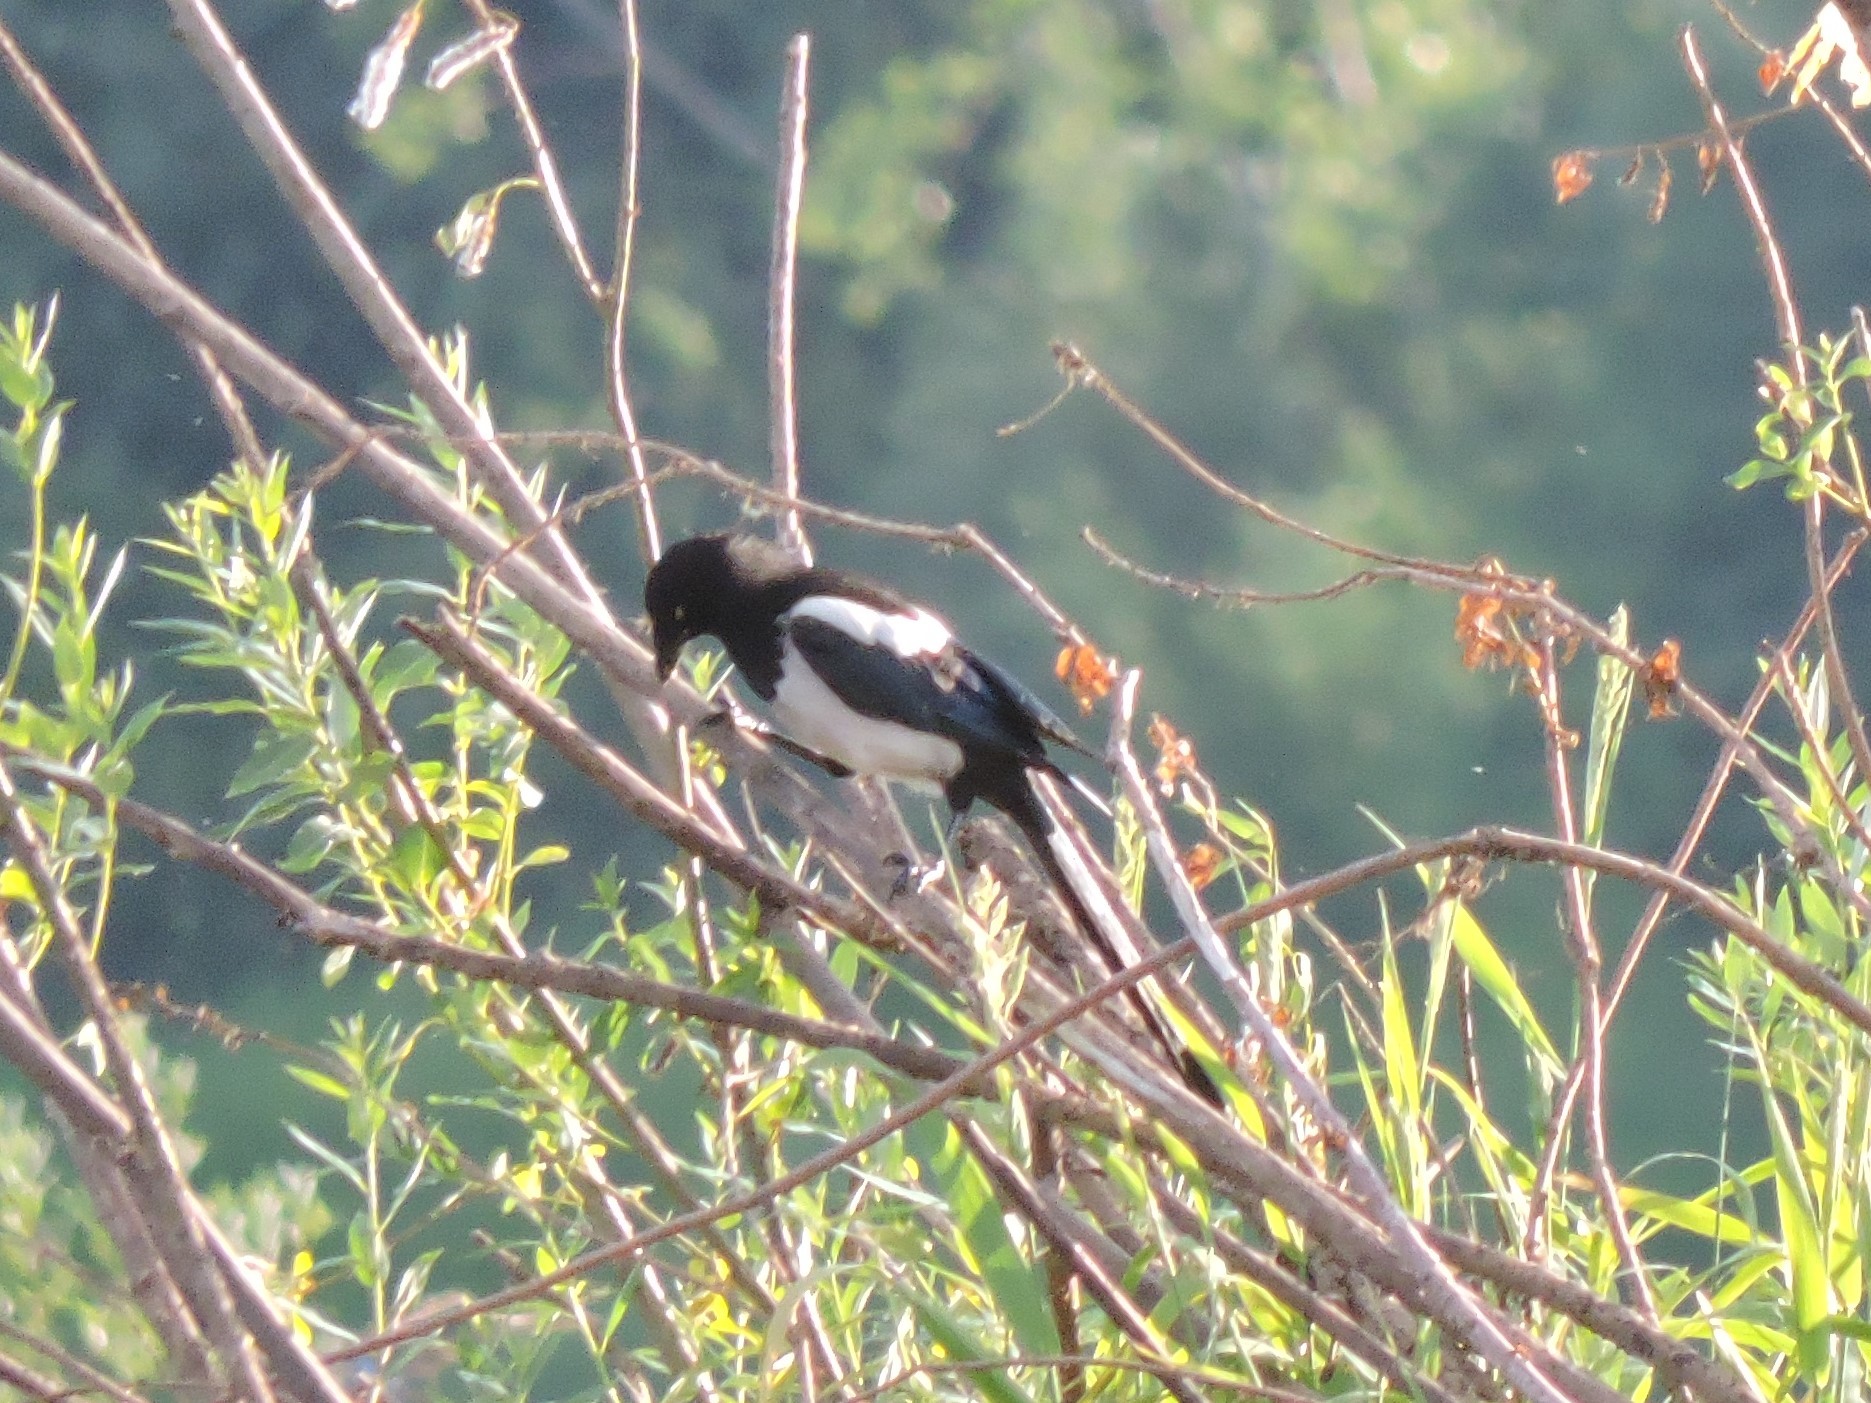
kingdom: Animalia
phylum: Chordata
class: Aves
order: Passeriformes
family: Corvidae
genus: Pica
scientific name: Pica pica
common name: Eurasian magpie
